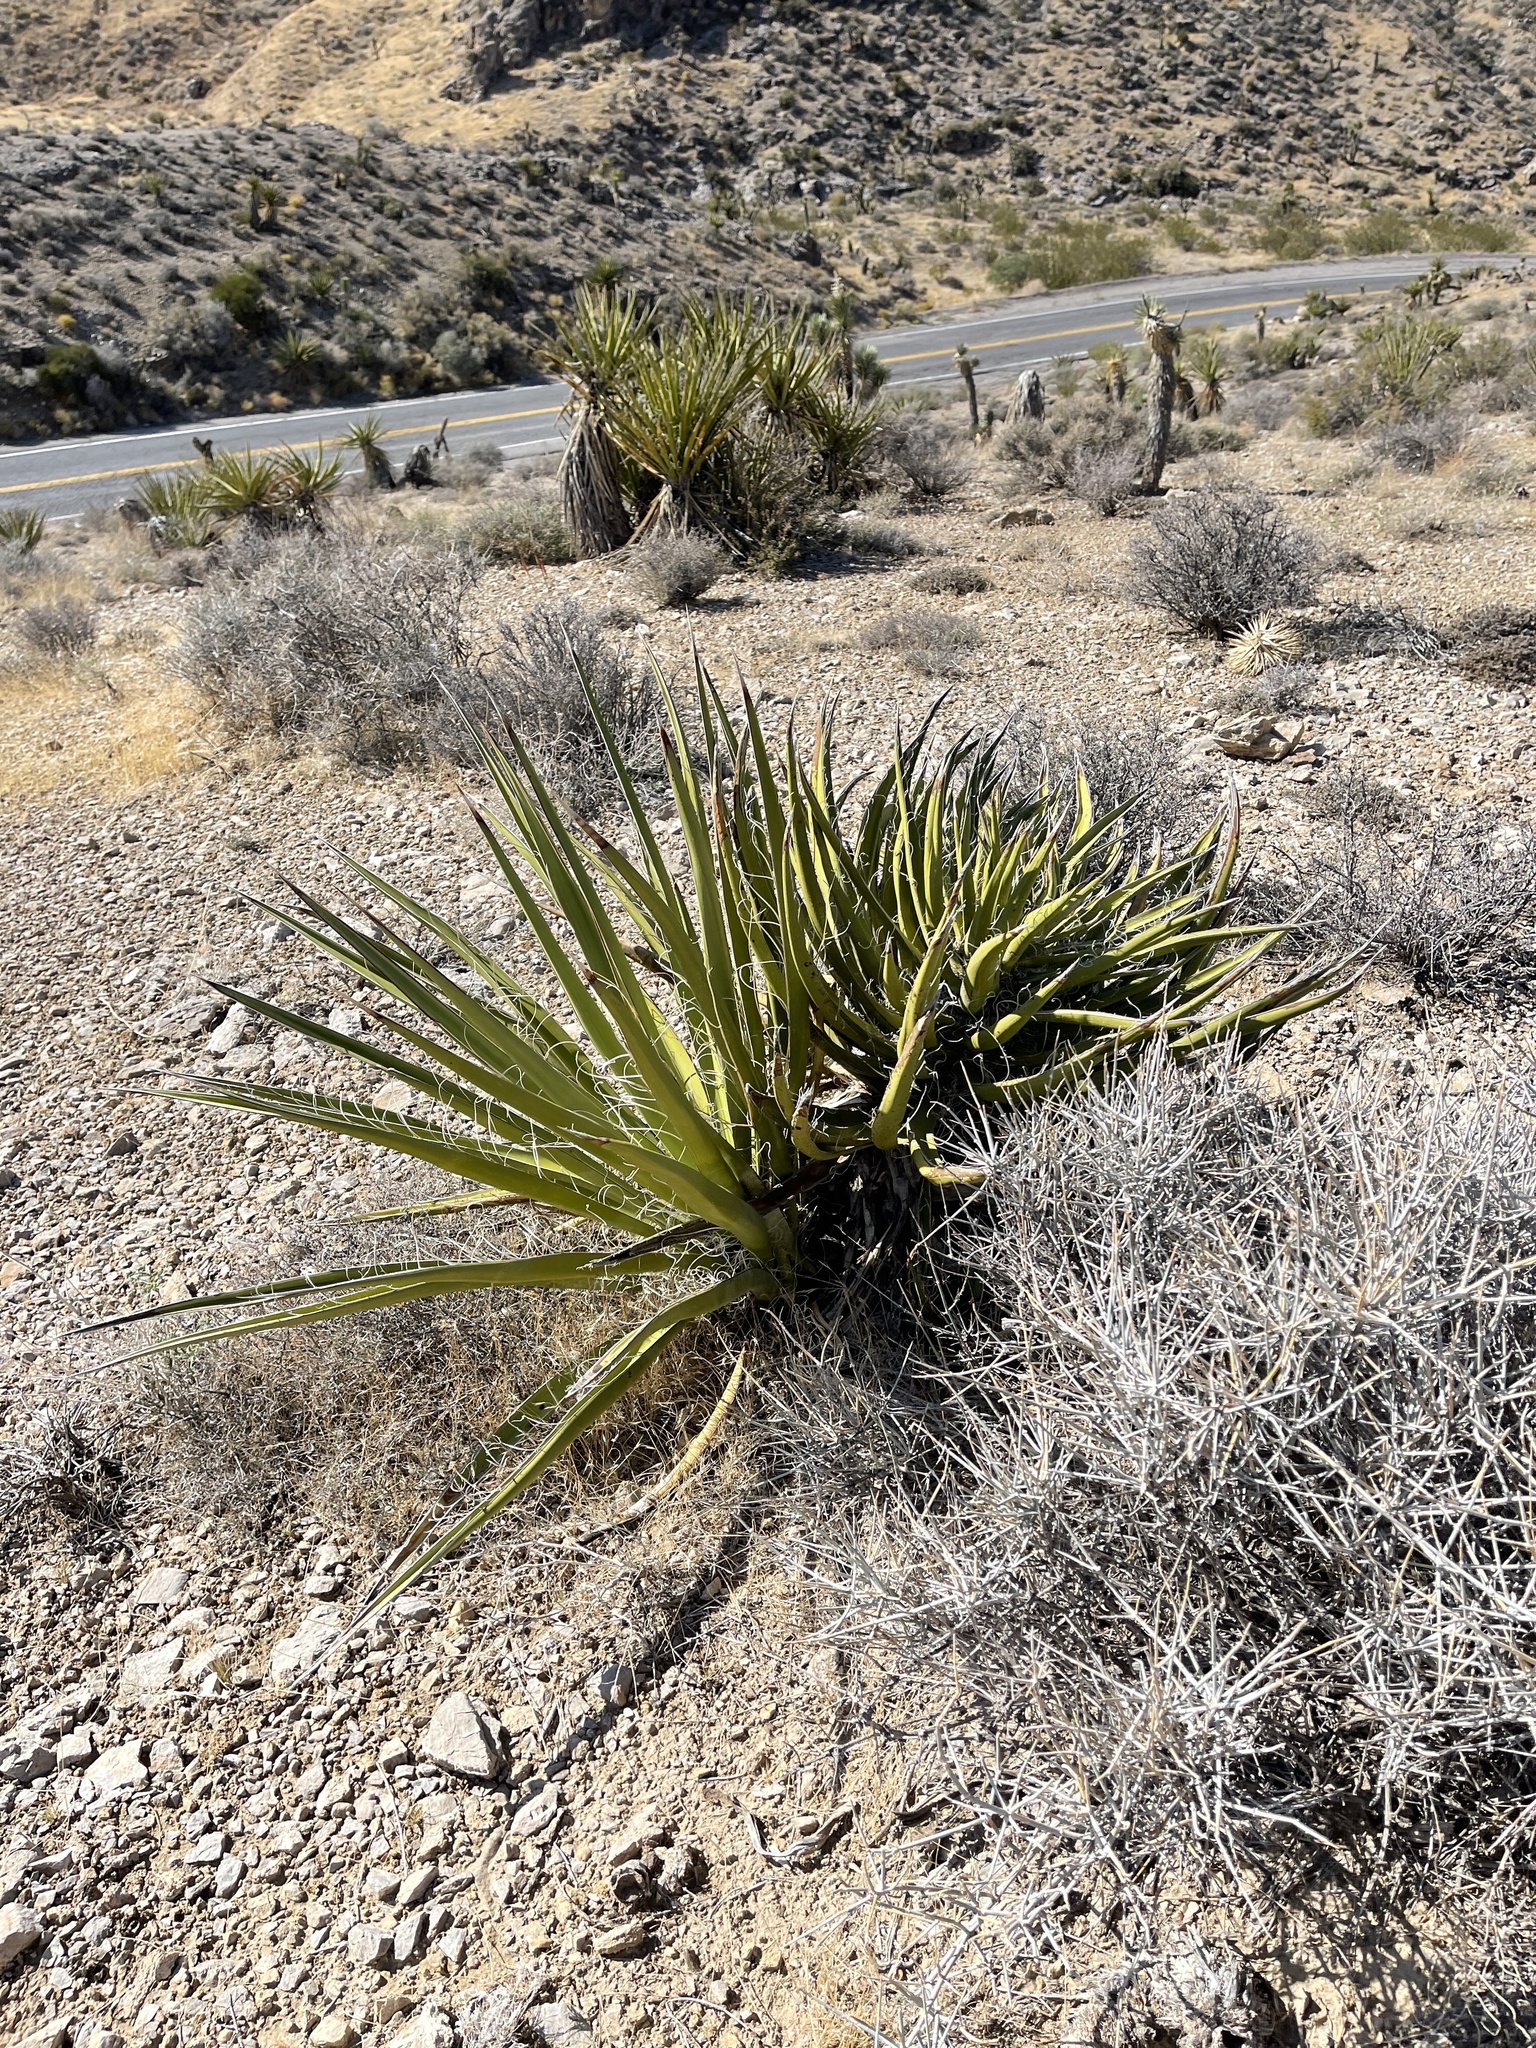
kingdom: Plantae
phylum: Tracheophyta
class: Liliopsida
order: Asparagales
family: Asparagaceae
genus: Yucca
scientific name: Yucca schidigera
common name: Mojave yucca
